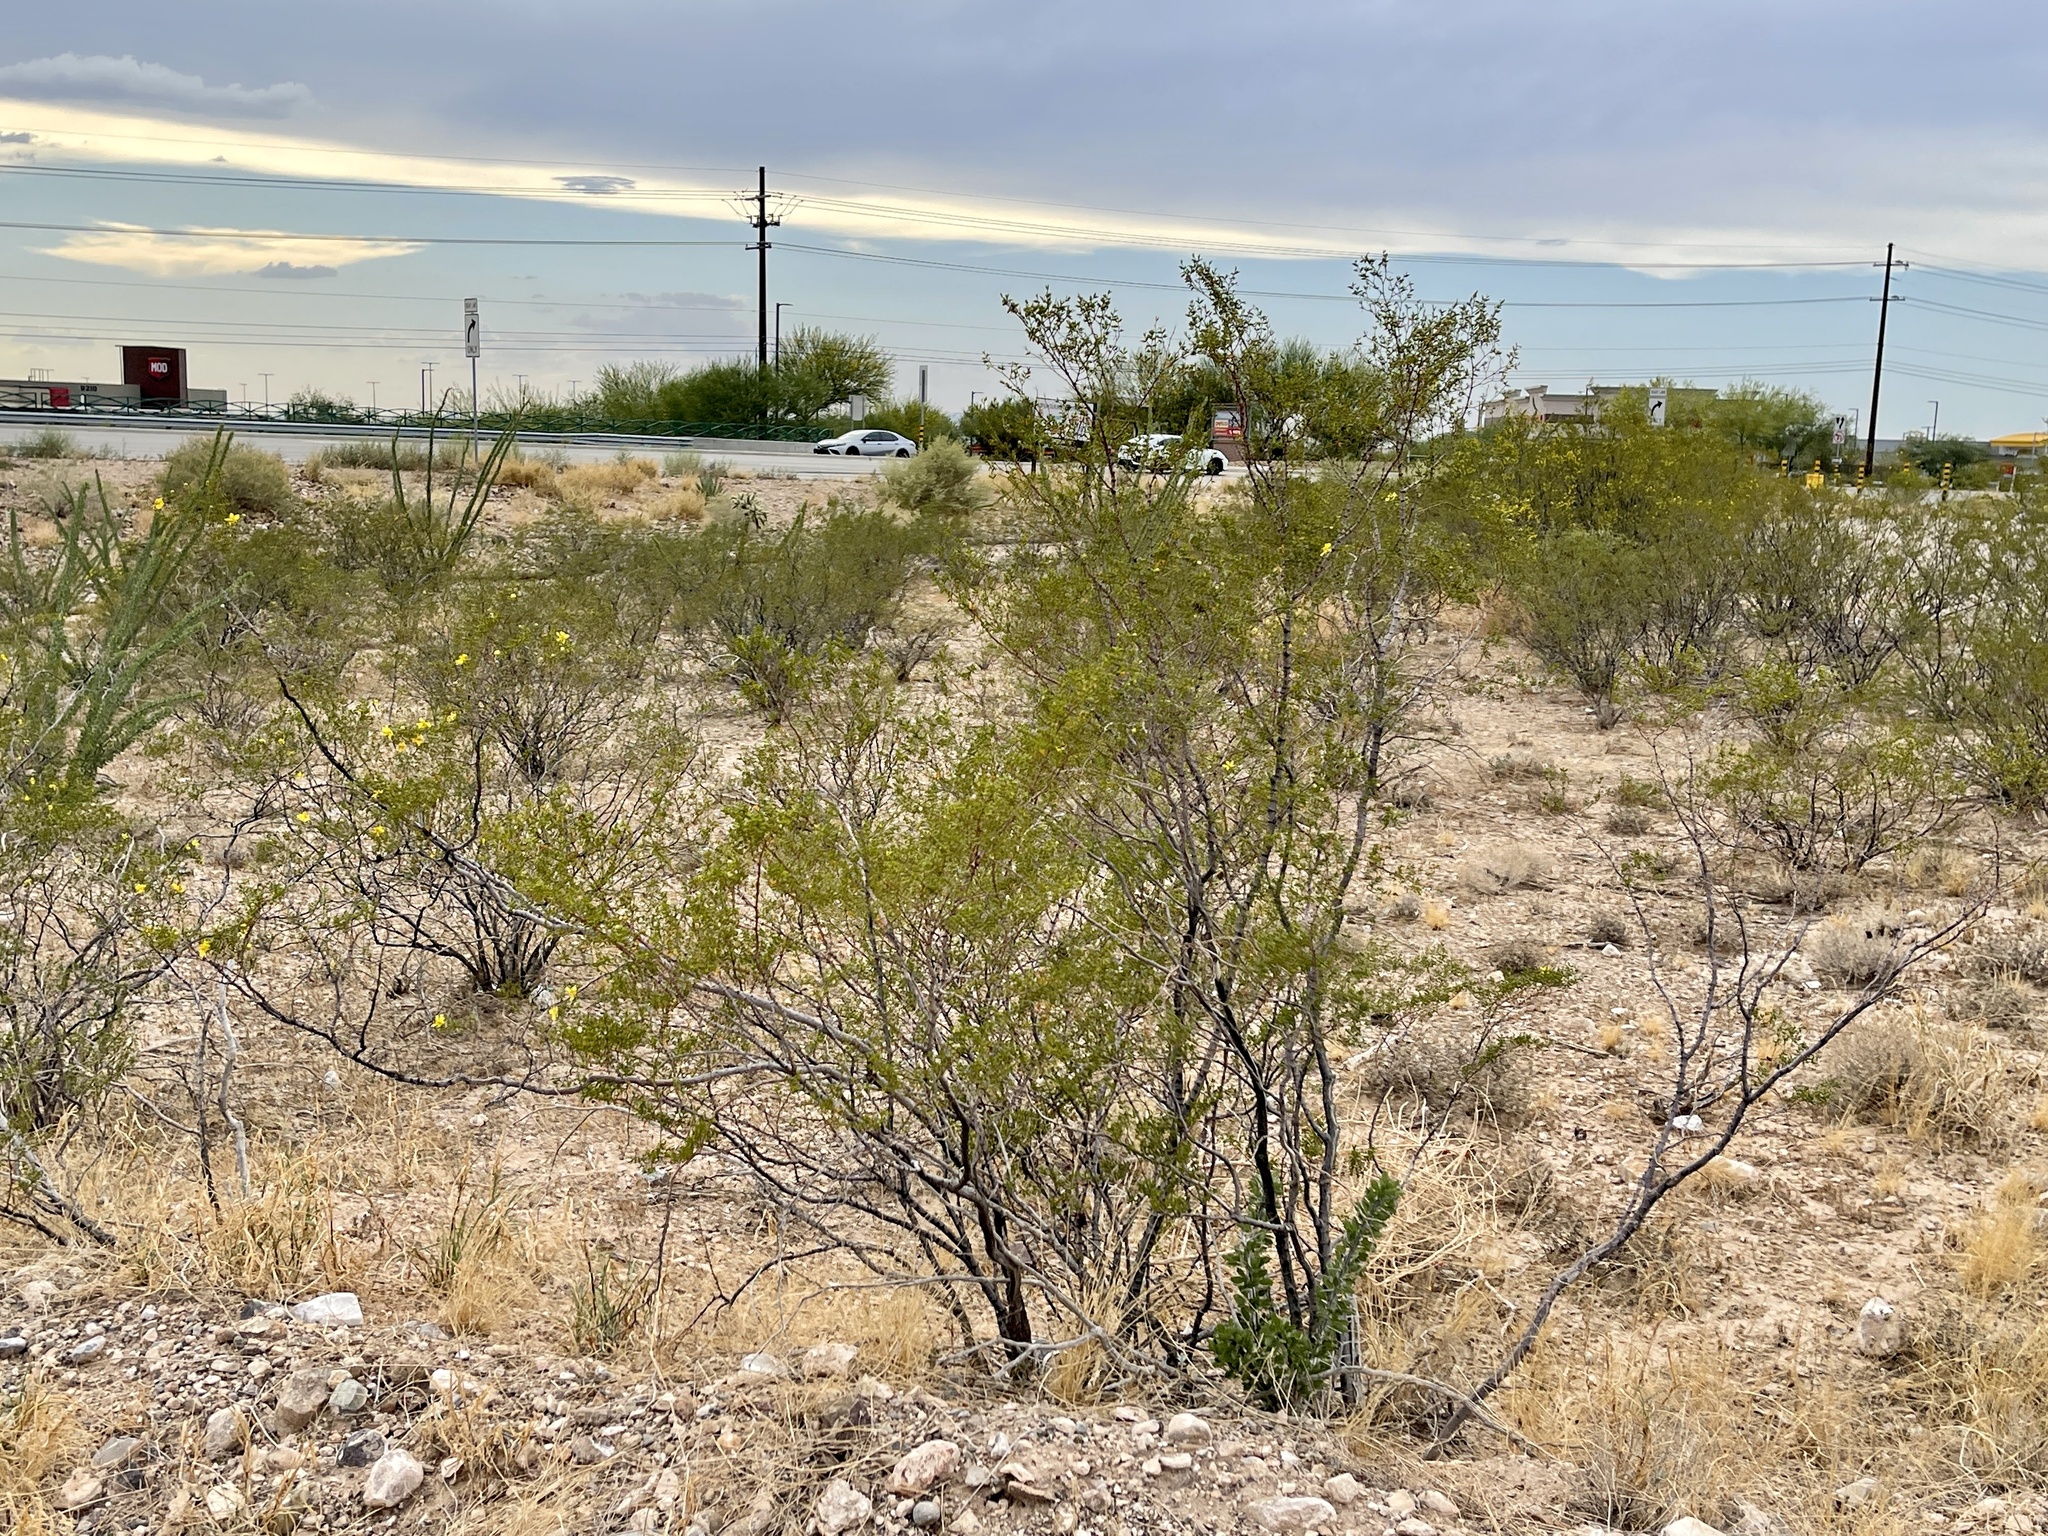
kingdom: Plantae
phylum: Tracheophyta
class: Magnoliopsida
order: Zygophyllales
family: Zygophyllaceae
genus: Larrea
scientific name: Larrea tridentata
